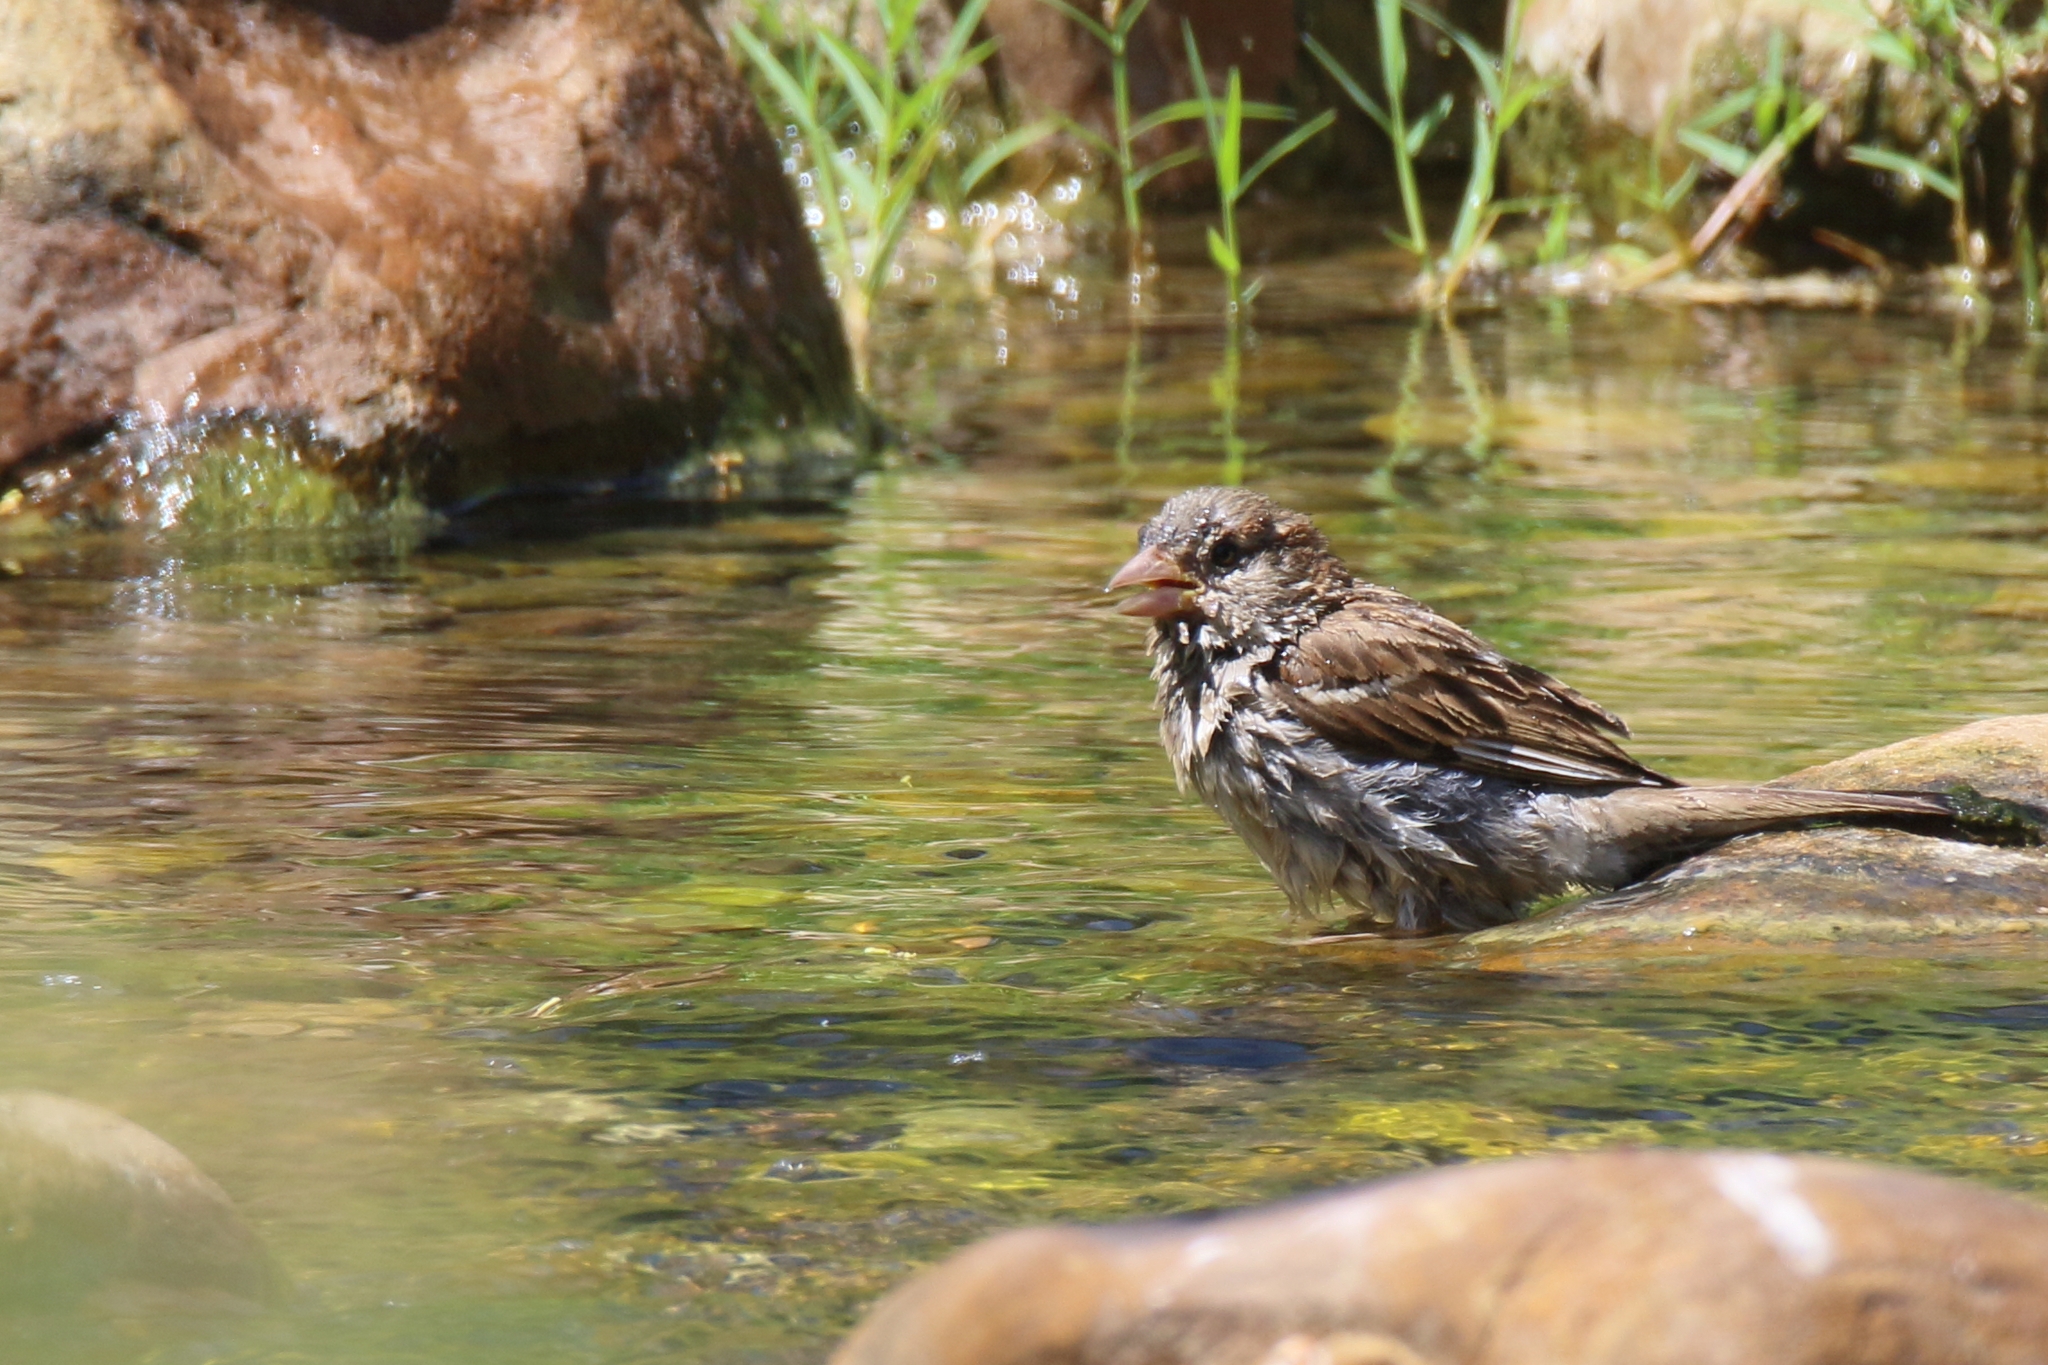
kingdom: Animalia
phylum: Chordata
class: Aves
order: Passeriformes
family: Passeridae
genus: Passer
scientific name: Passer domesticus
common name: House sparrow
